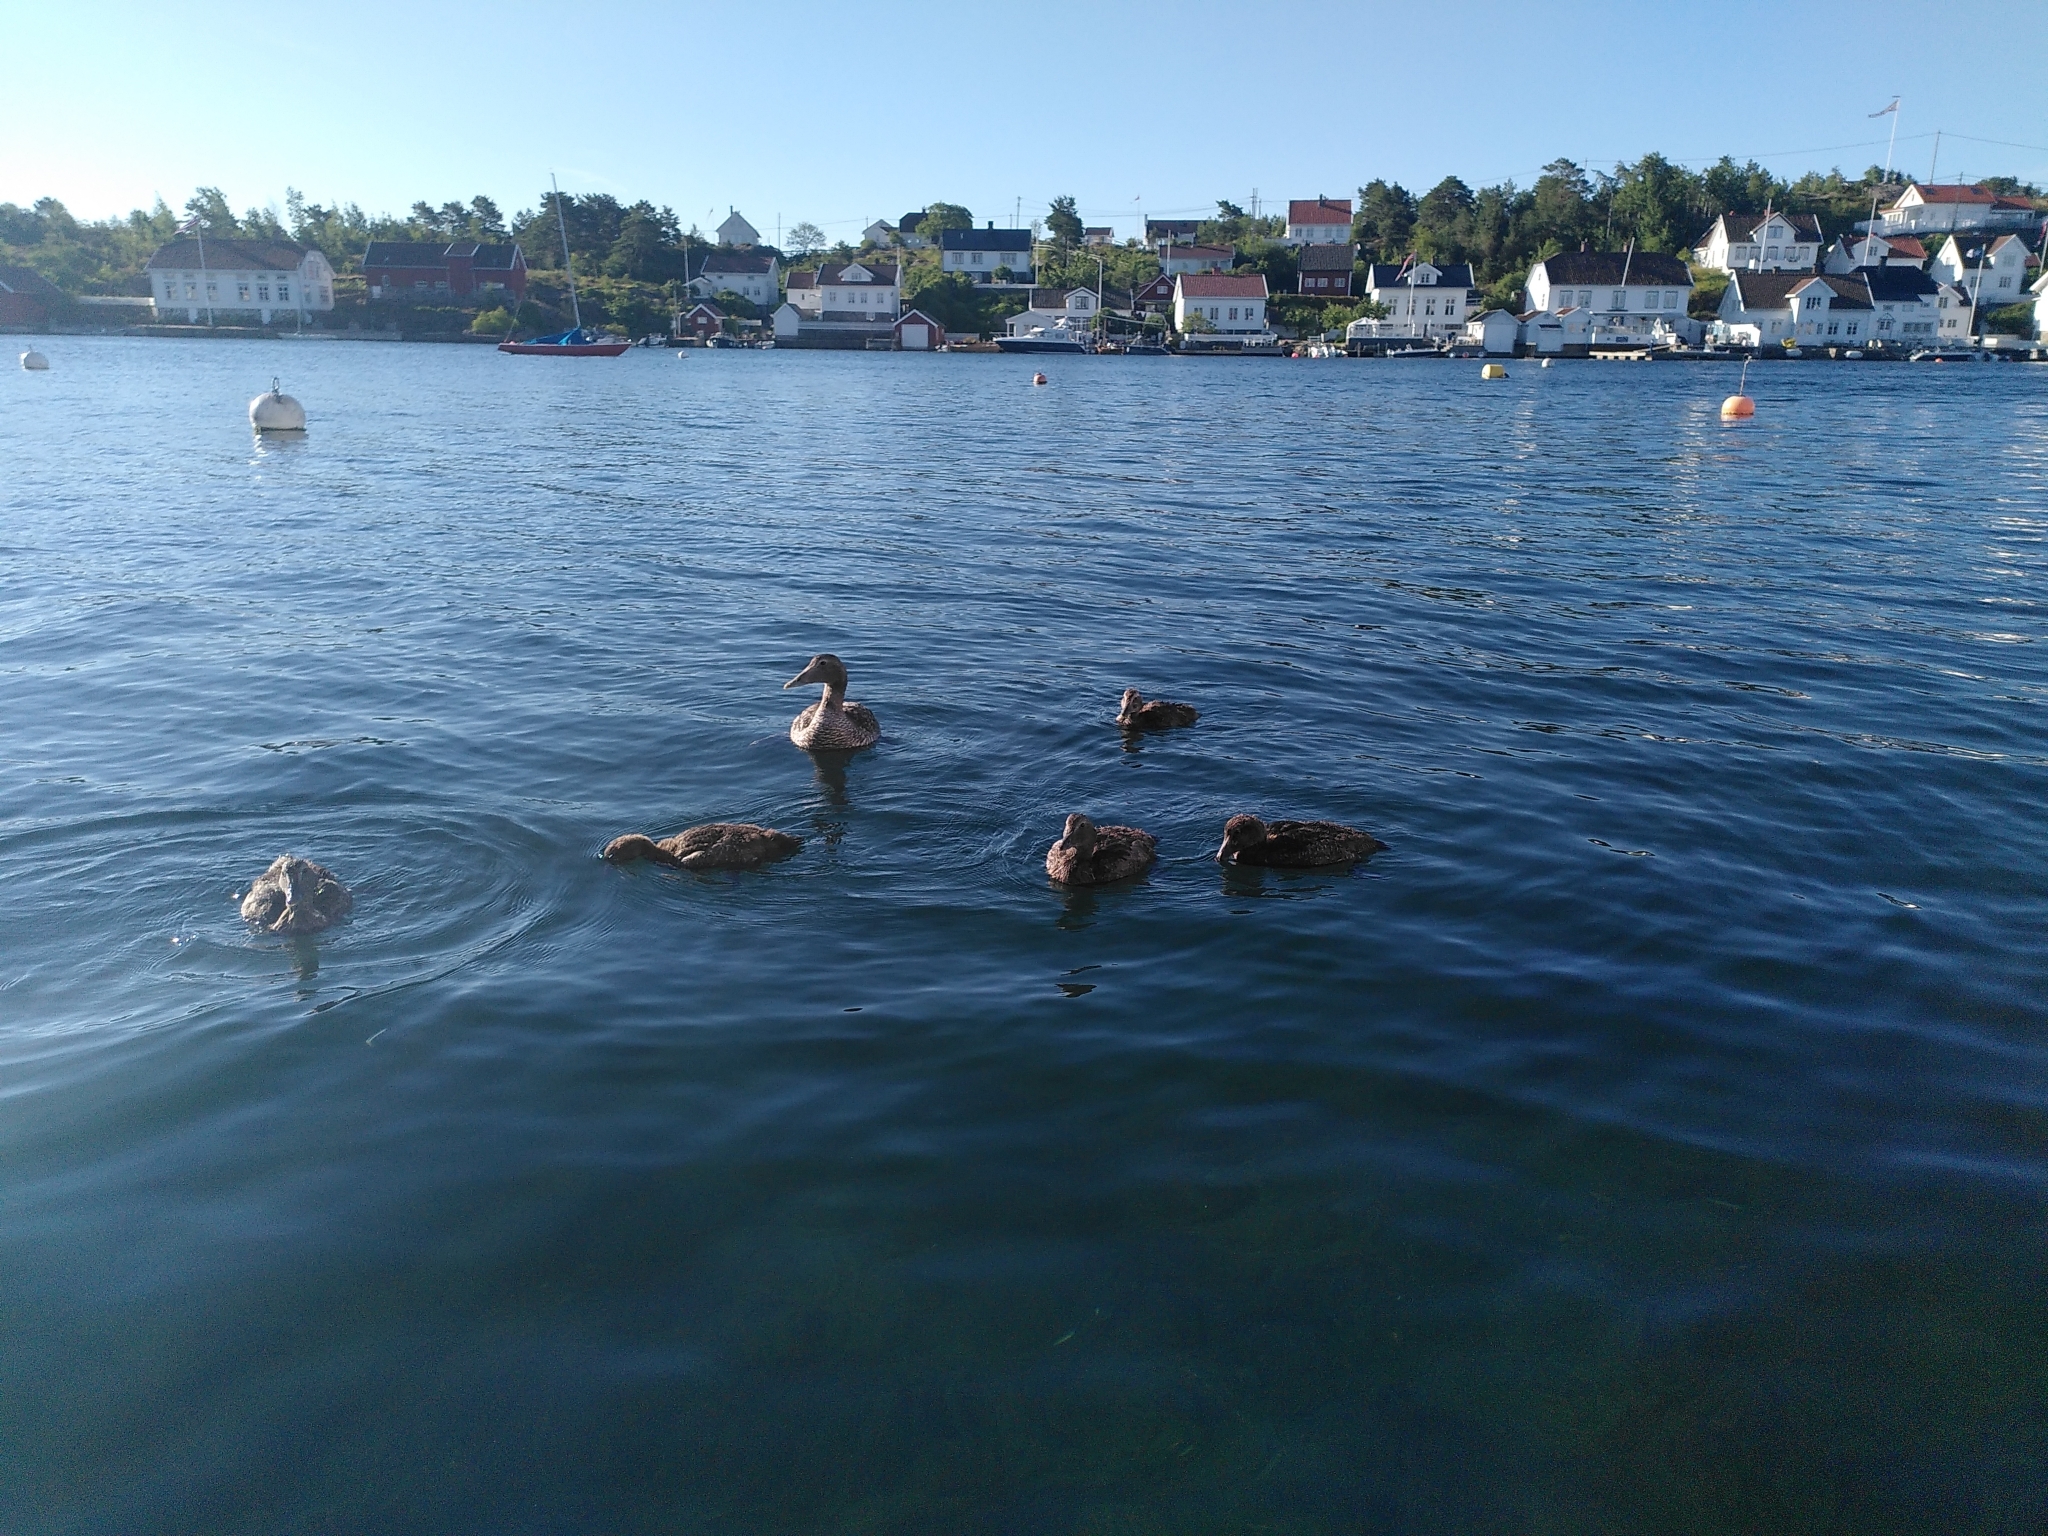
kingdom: Animalia
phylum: Chordata
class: Aves
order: Anseriformes
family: Anatidae
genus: Somateria
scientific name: Somateria mollissima
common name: Common eider
